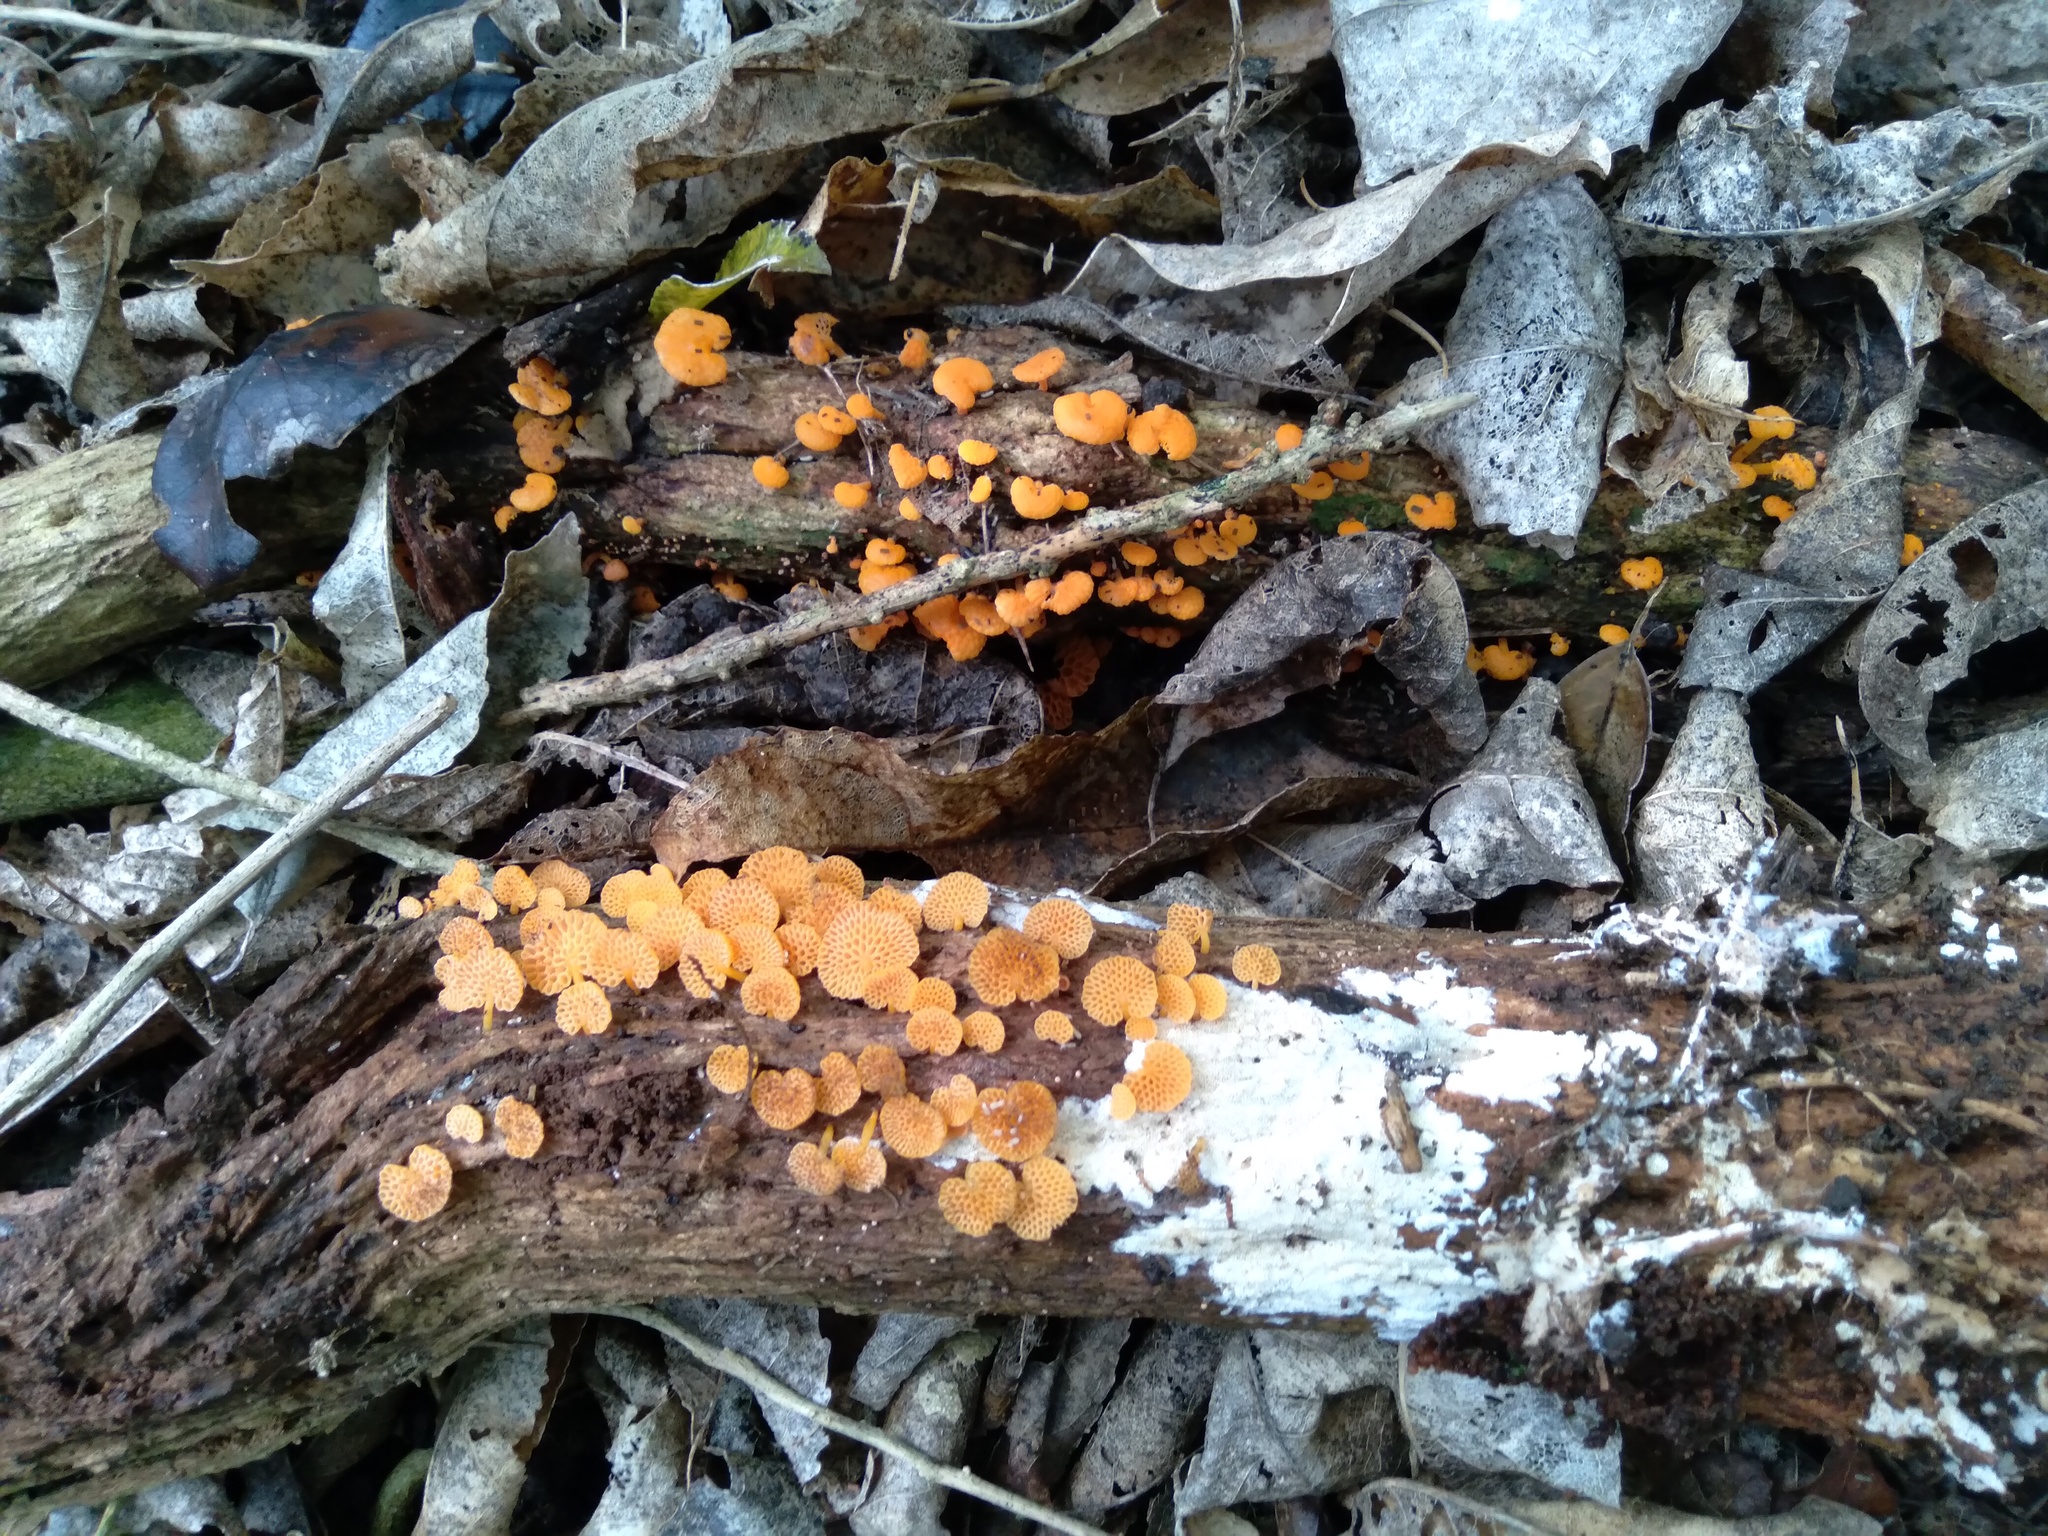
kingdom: Fungi
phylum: Basidiomycota
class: Agaricomycetes
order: Agaricales
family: Mycenaceae
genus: Favolaschia
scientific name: Favolaschia claudopus
